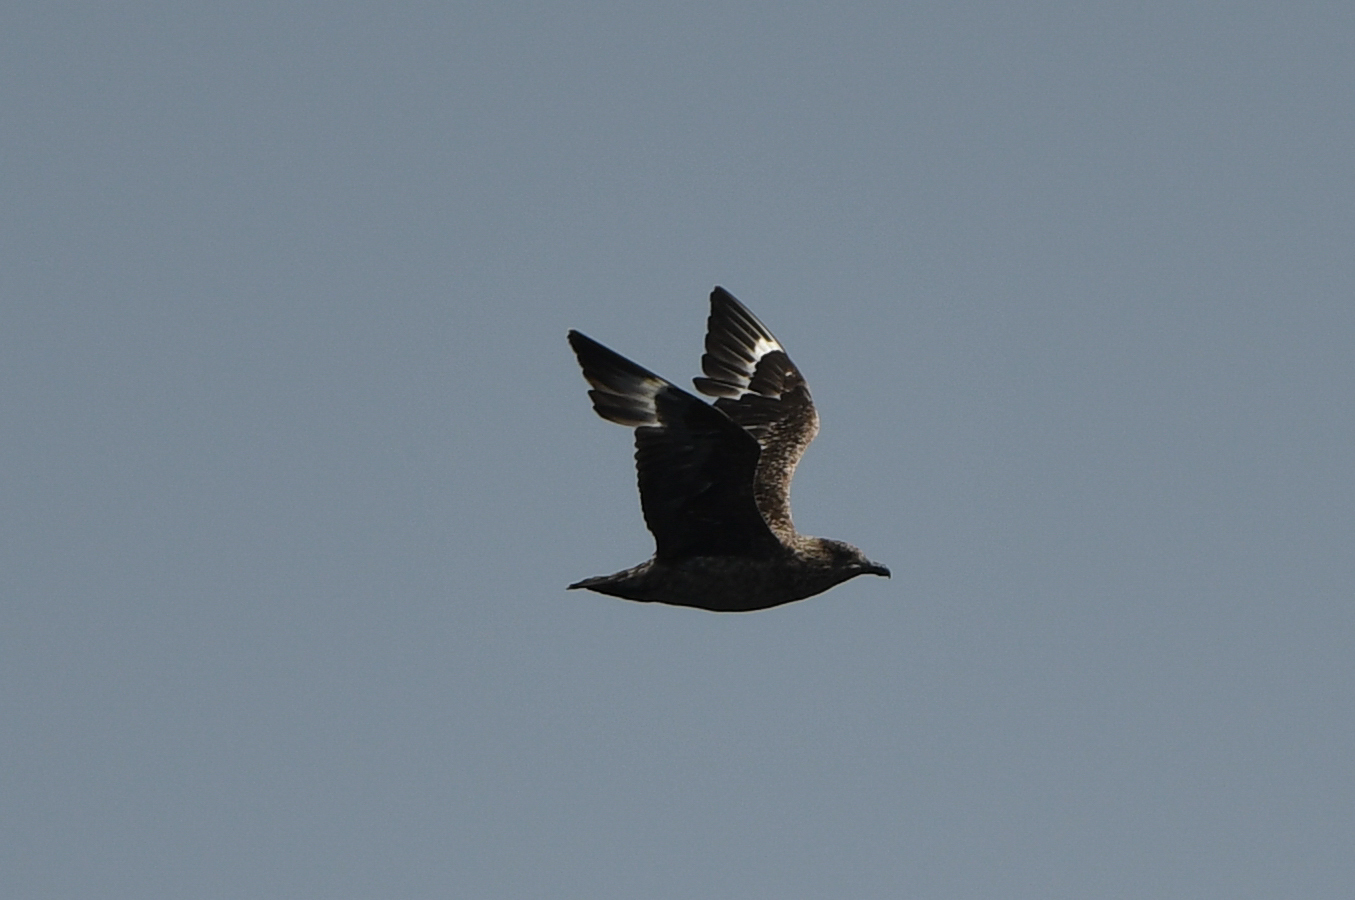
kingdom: Animalia
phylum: Chordata
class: Aves
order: Charadriiformes
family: Stercorariidae
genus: Stercorarius
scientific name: Stercorarius skua
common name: Great skua
